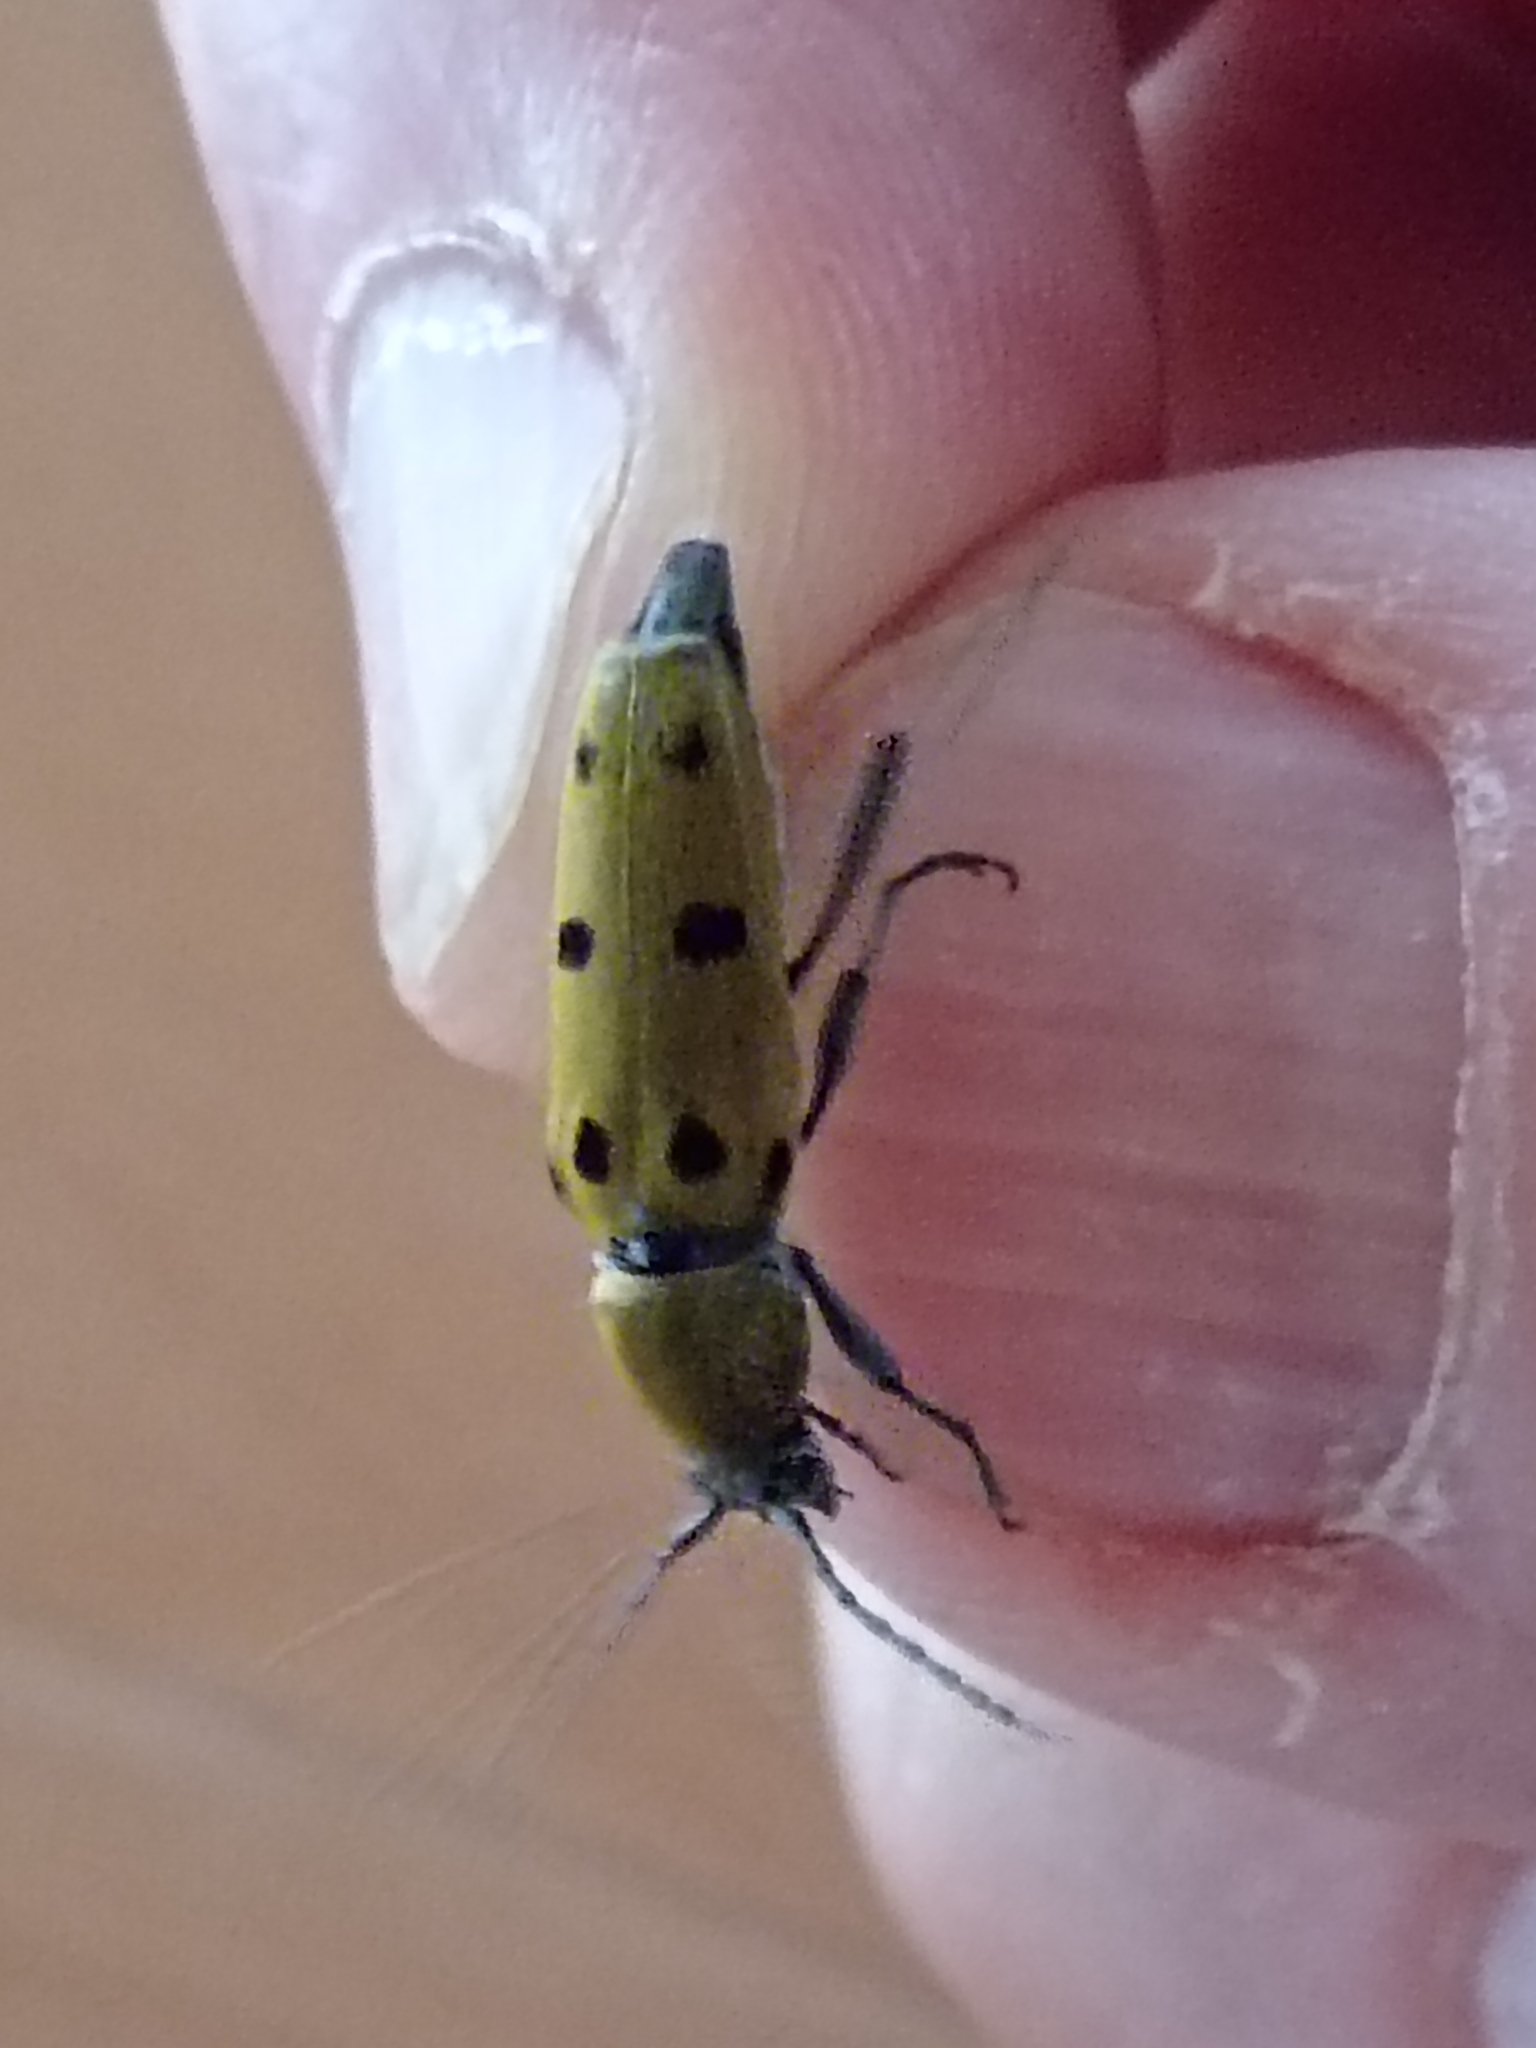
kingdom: Animalia
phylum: Arthropoda
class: Insecta
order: Coleoptera
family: Cerambycidae
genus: Chlorophorus
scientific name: Chlorophorus glabromaculatus
